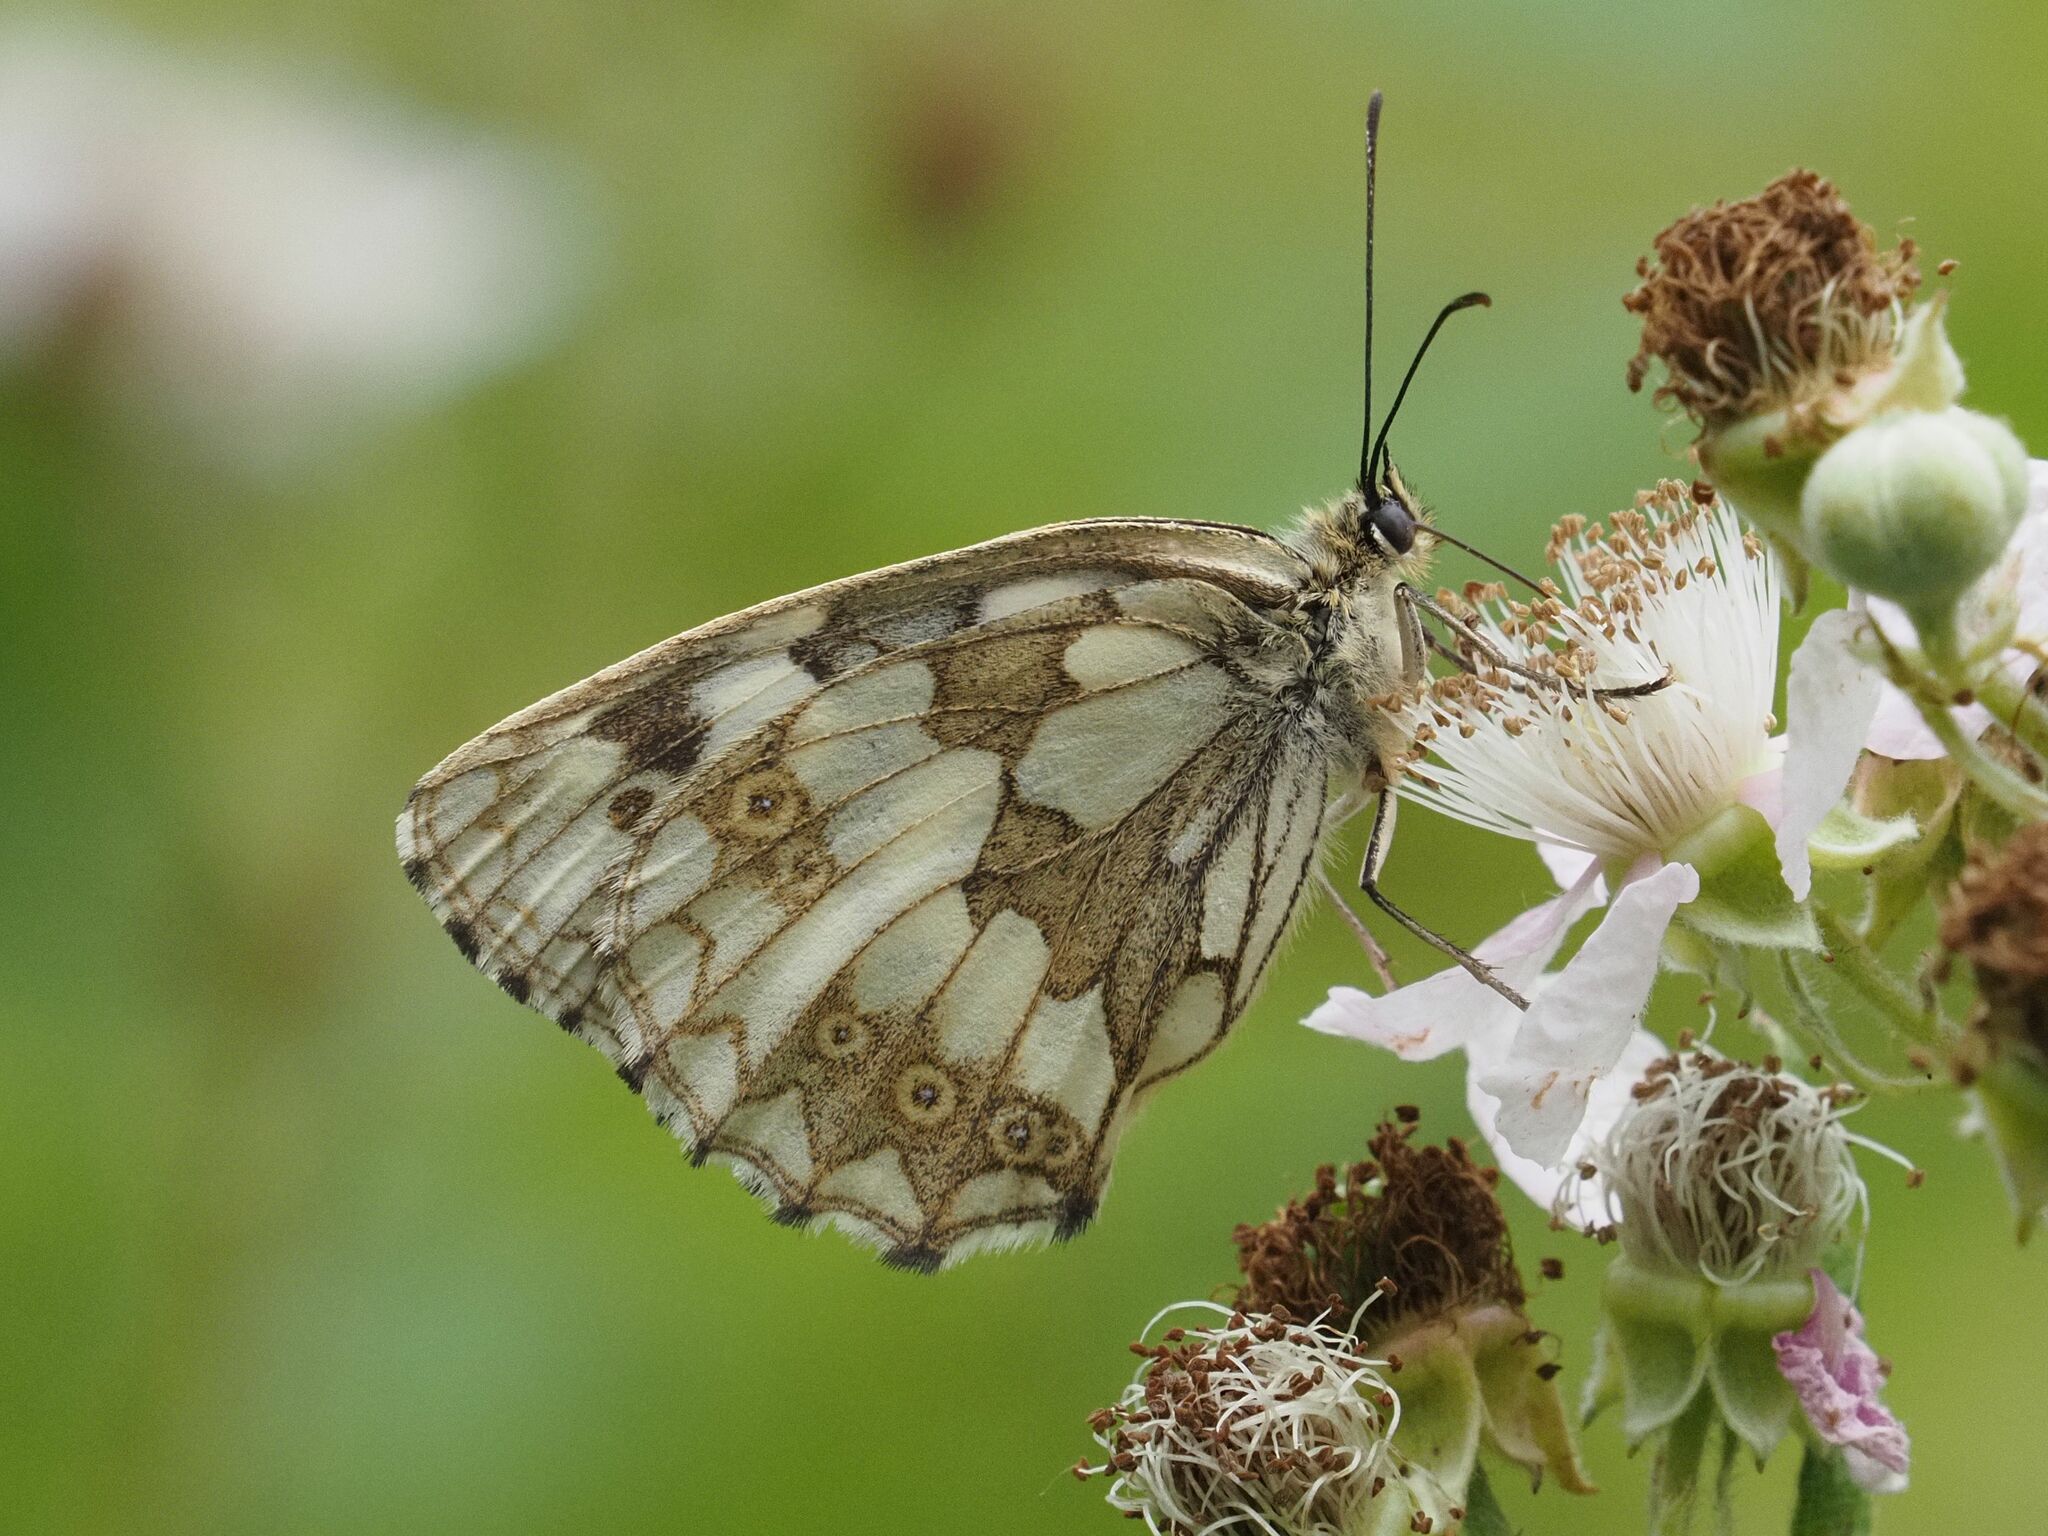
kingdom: Animalia
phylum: Arthropoda
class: Insecta
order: Lepidoptera
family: Nymphalidae
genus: Melanargia
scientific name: Melanargia galathea
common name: Marbled white
